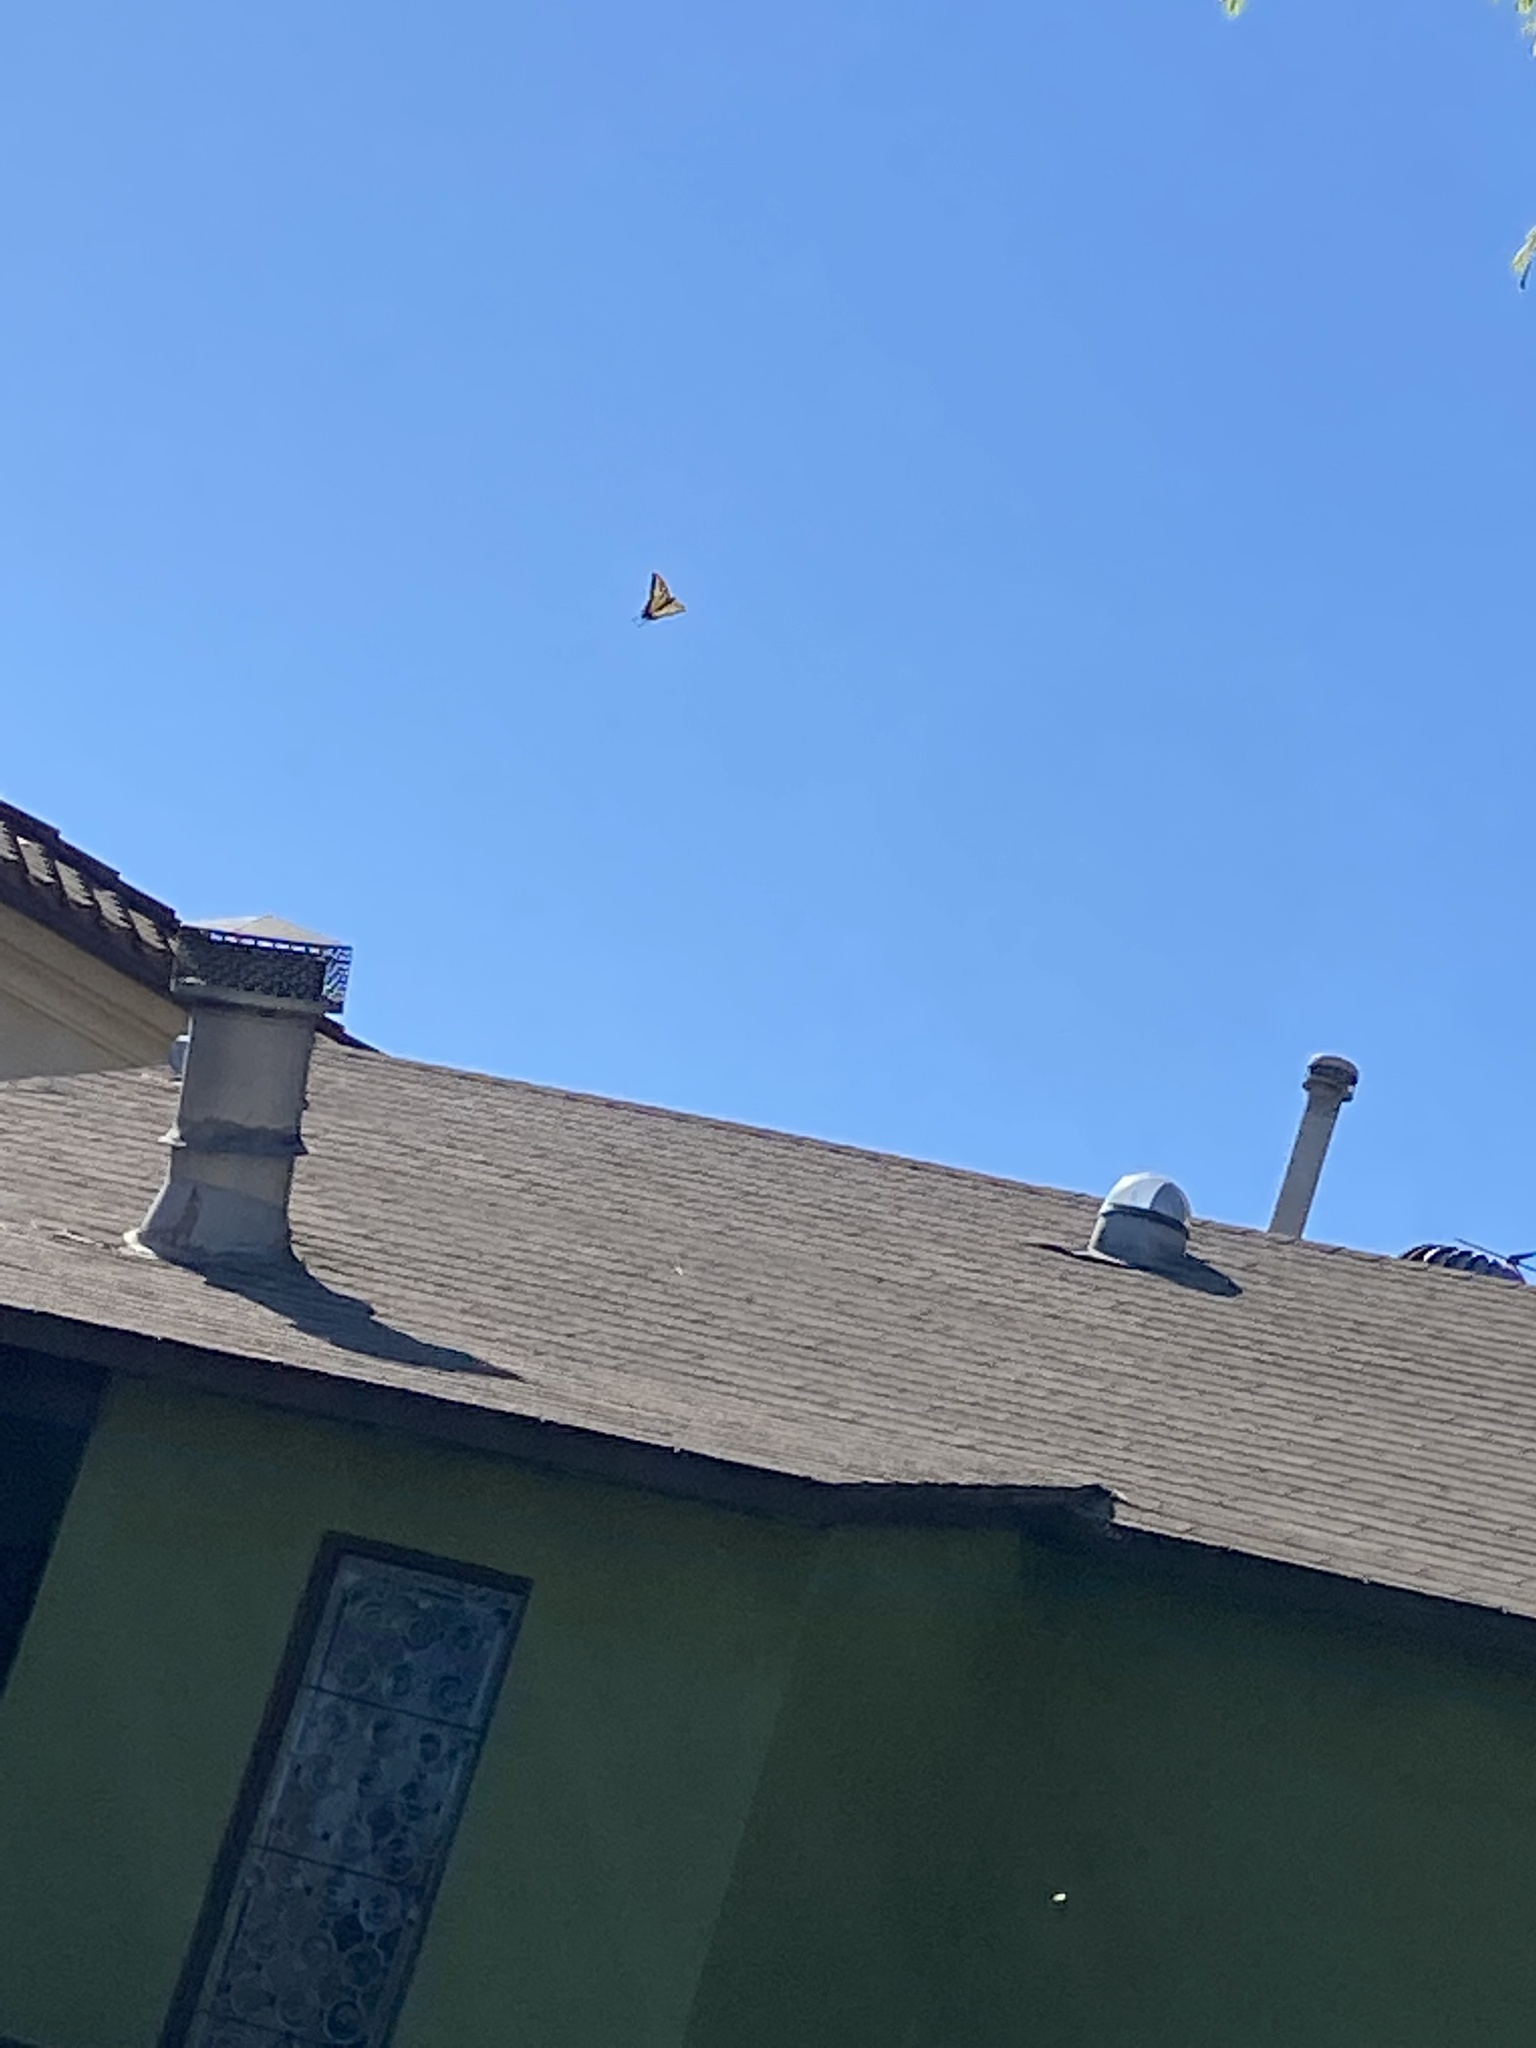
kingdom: Animalia
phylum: Arthropoda
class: Insecta
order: Lepidoptera
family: Papilionidae
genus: Papilio
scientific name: Papilio rutulus
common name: Western tiger swallowtail
